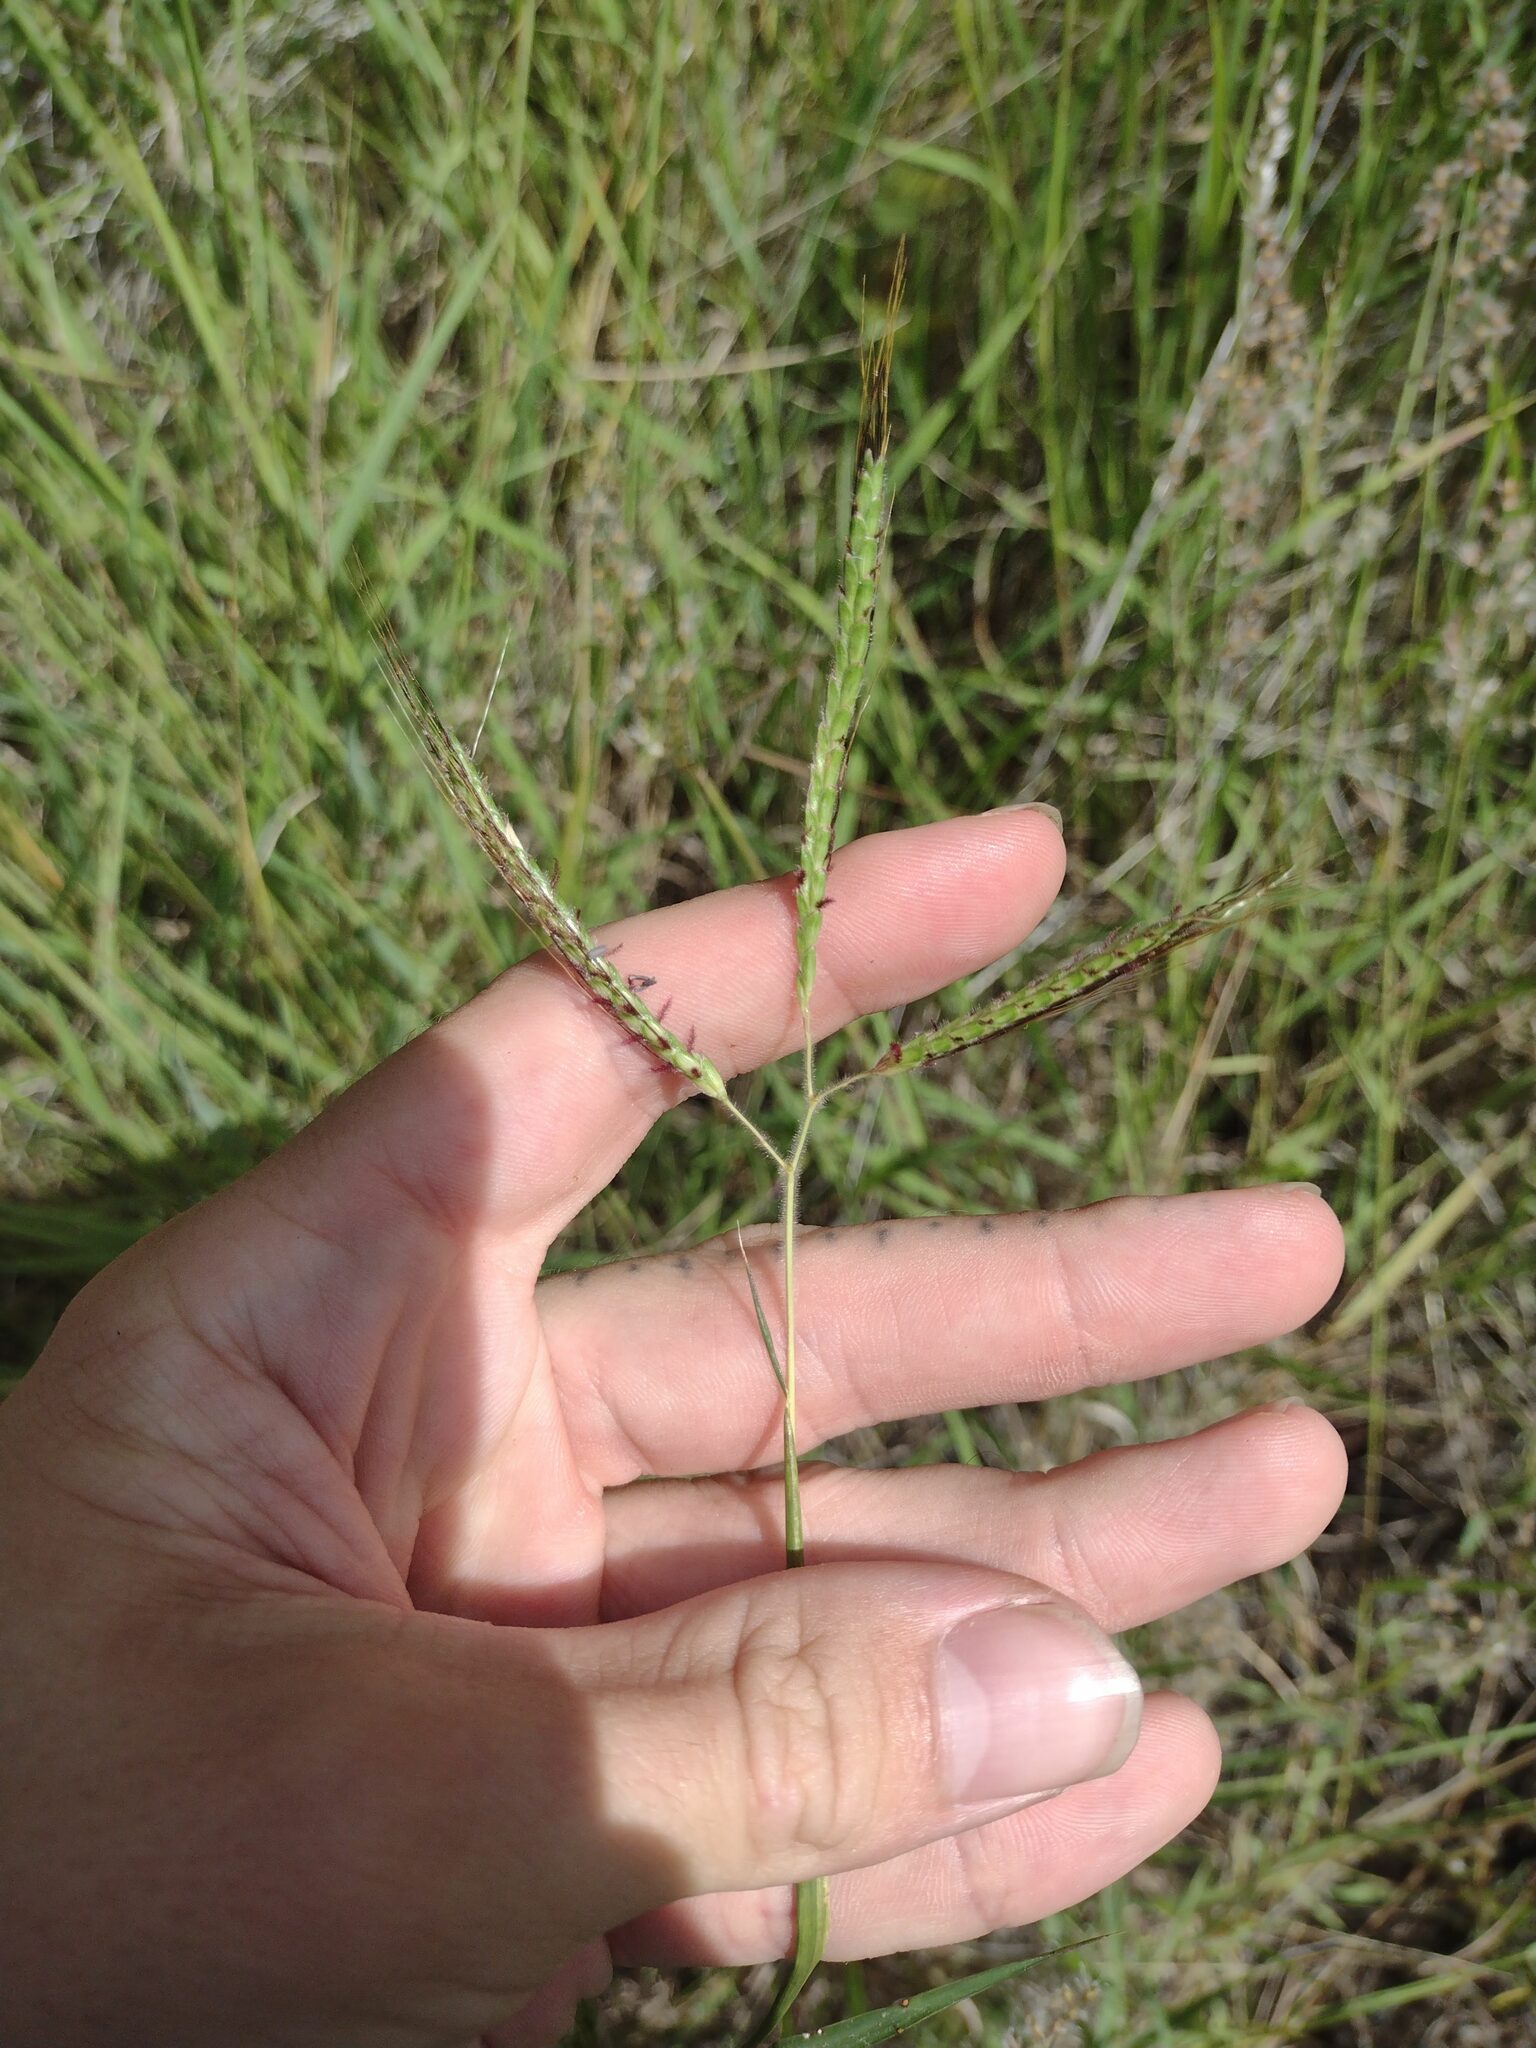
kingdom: Plantae
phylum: Tracheophyta
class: Liliopsida
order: Poales
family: Poaceae
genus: Dichanthium
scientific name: Dichanthium aristatum
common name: Angleton bluestem
